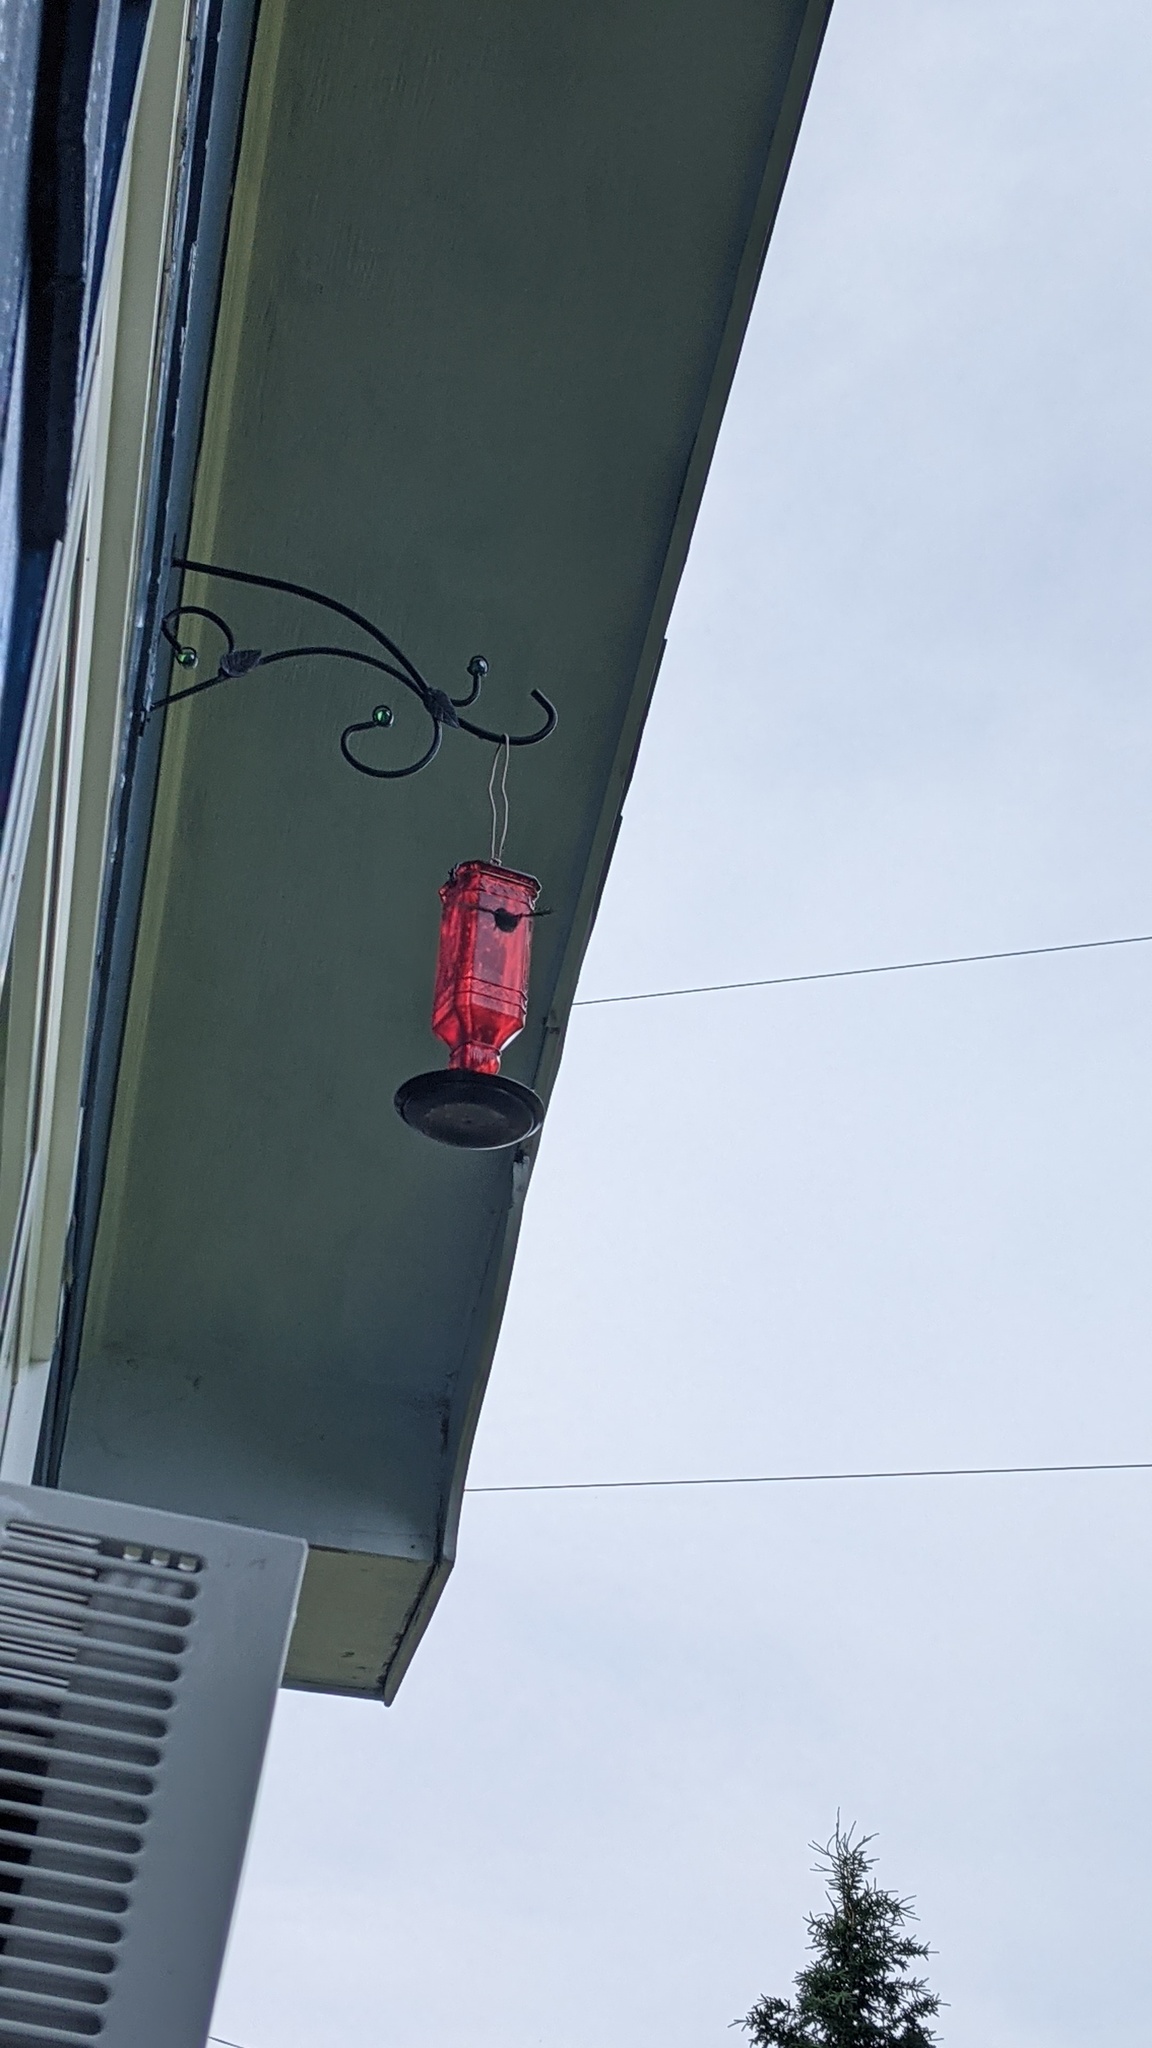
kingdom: Animalia
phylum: Chordata
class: Aves
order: Apodiformes
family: Trochilidae
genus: Archilochus
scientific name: Archilochus colubris
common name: Ruby-throated hummingbird
